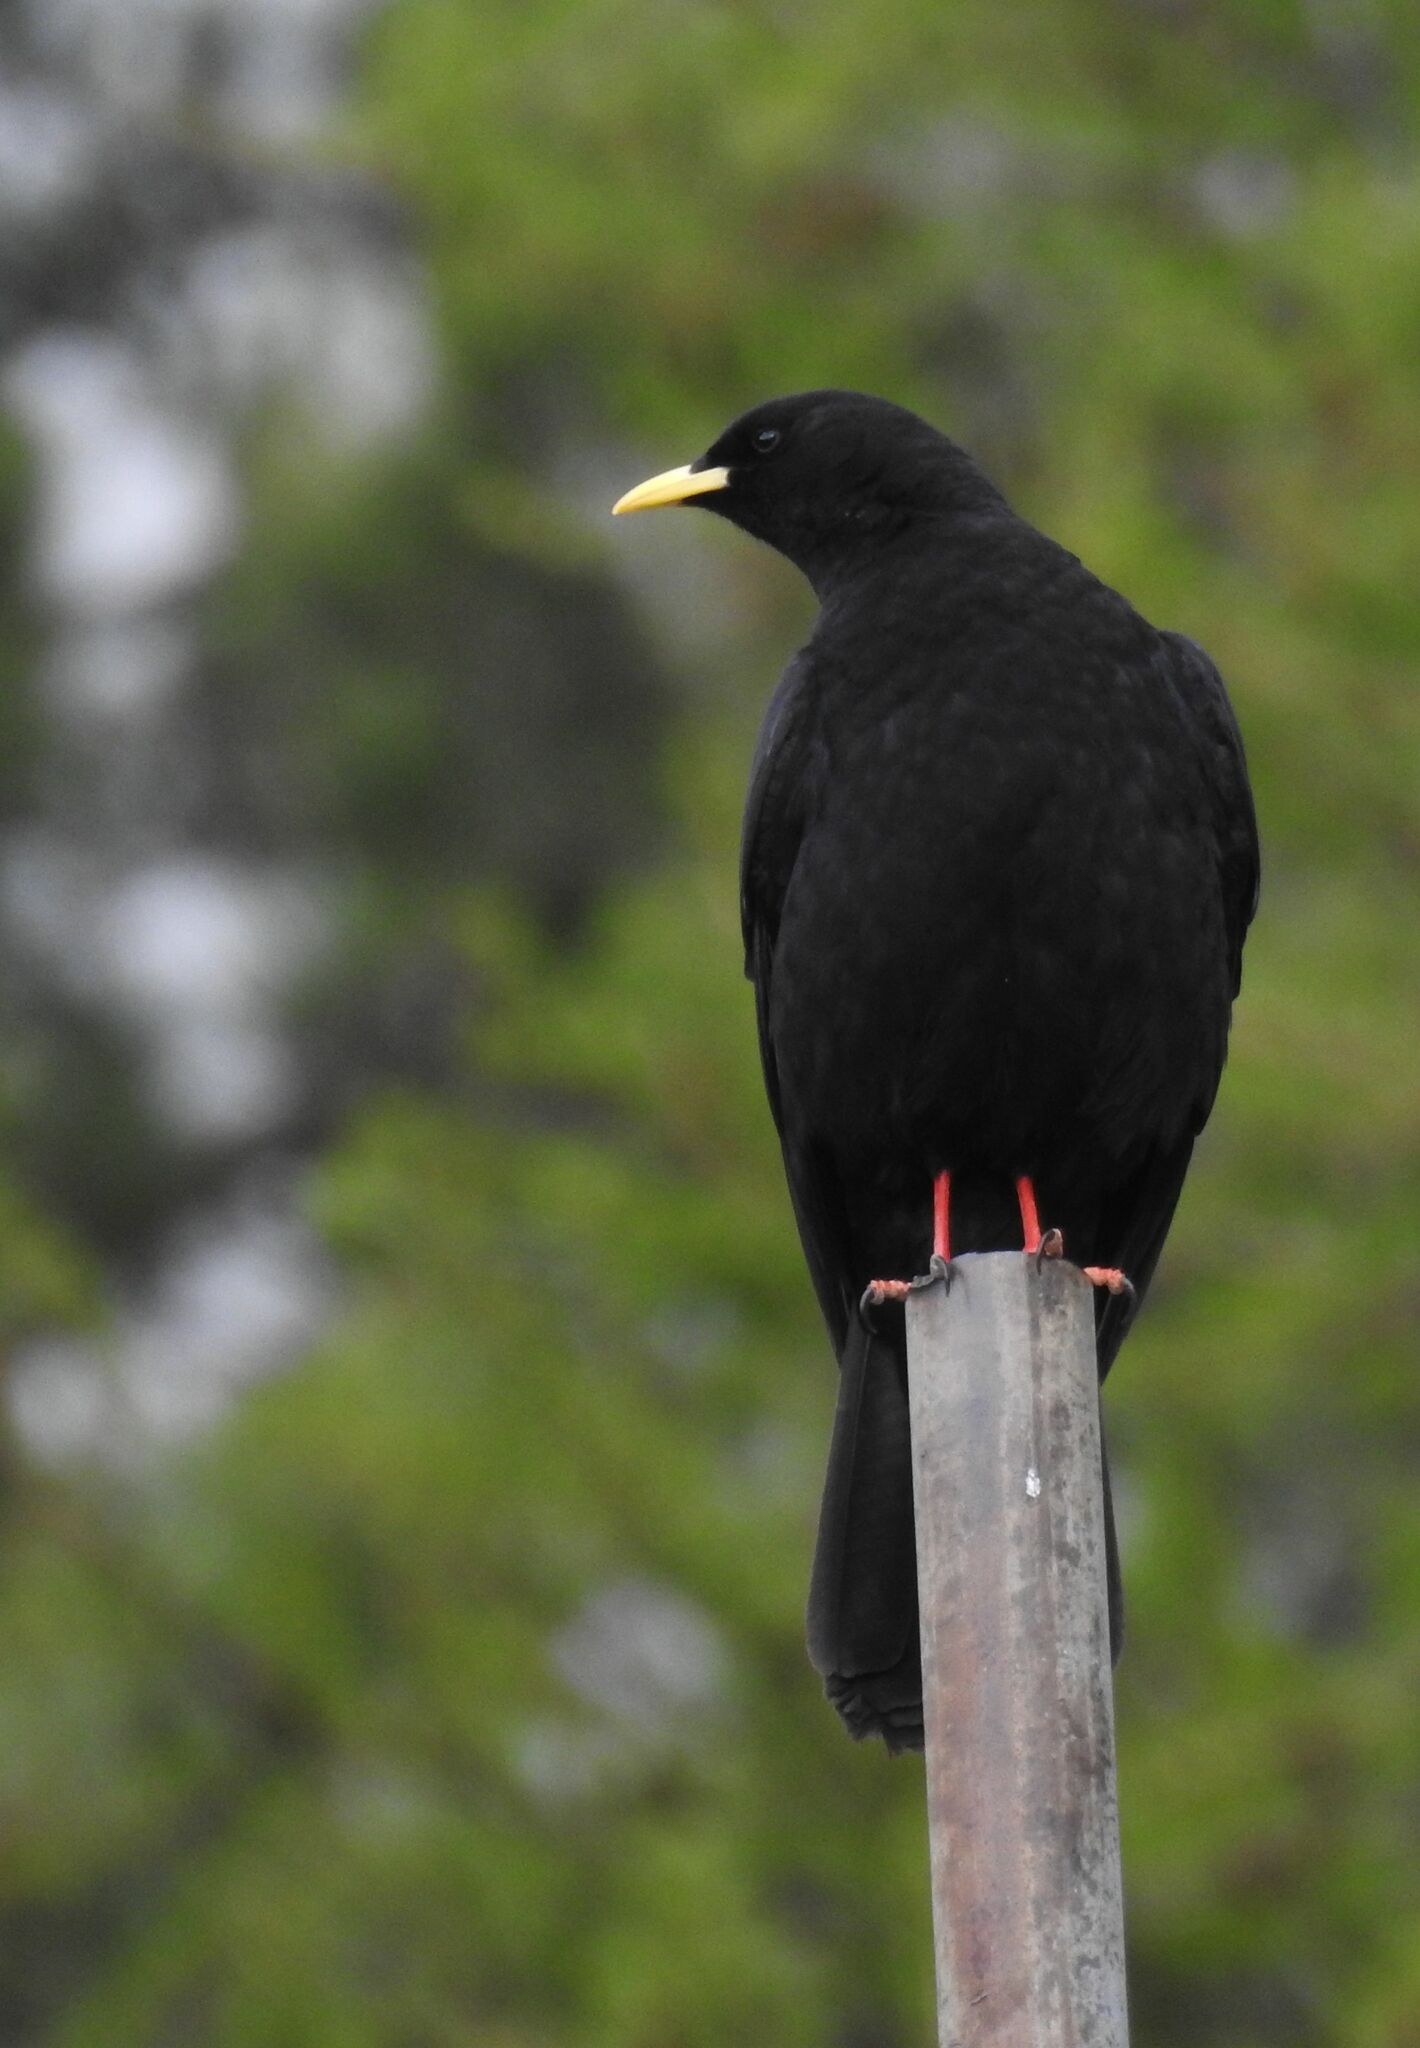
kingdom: Animalia
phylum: Chordata
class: Aves
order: Passeriformes
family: Corvidae
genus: Pyrrhocorax
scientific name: Pyrrhocorax graculus
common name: Alpine chough
